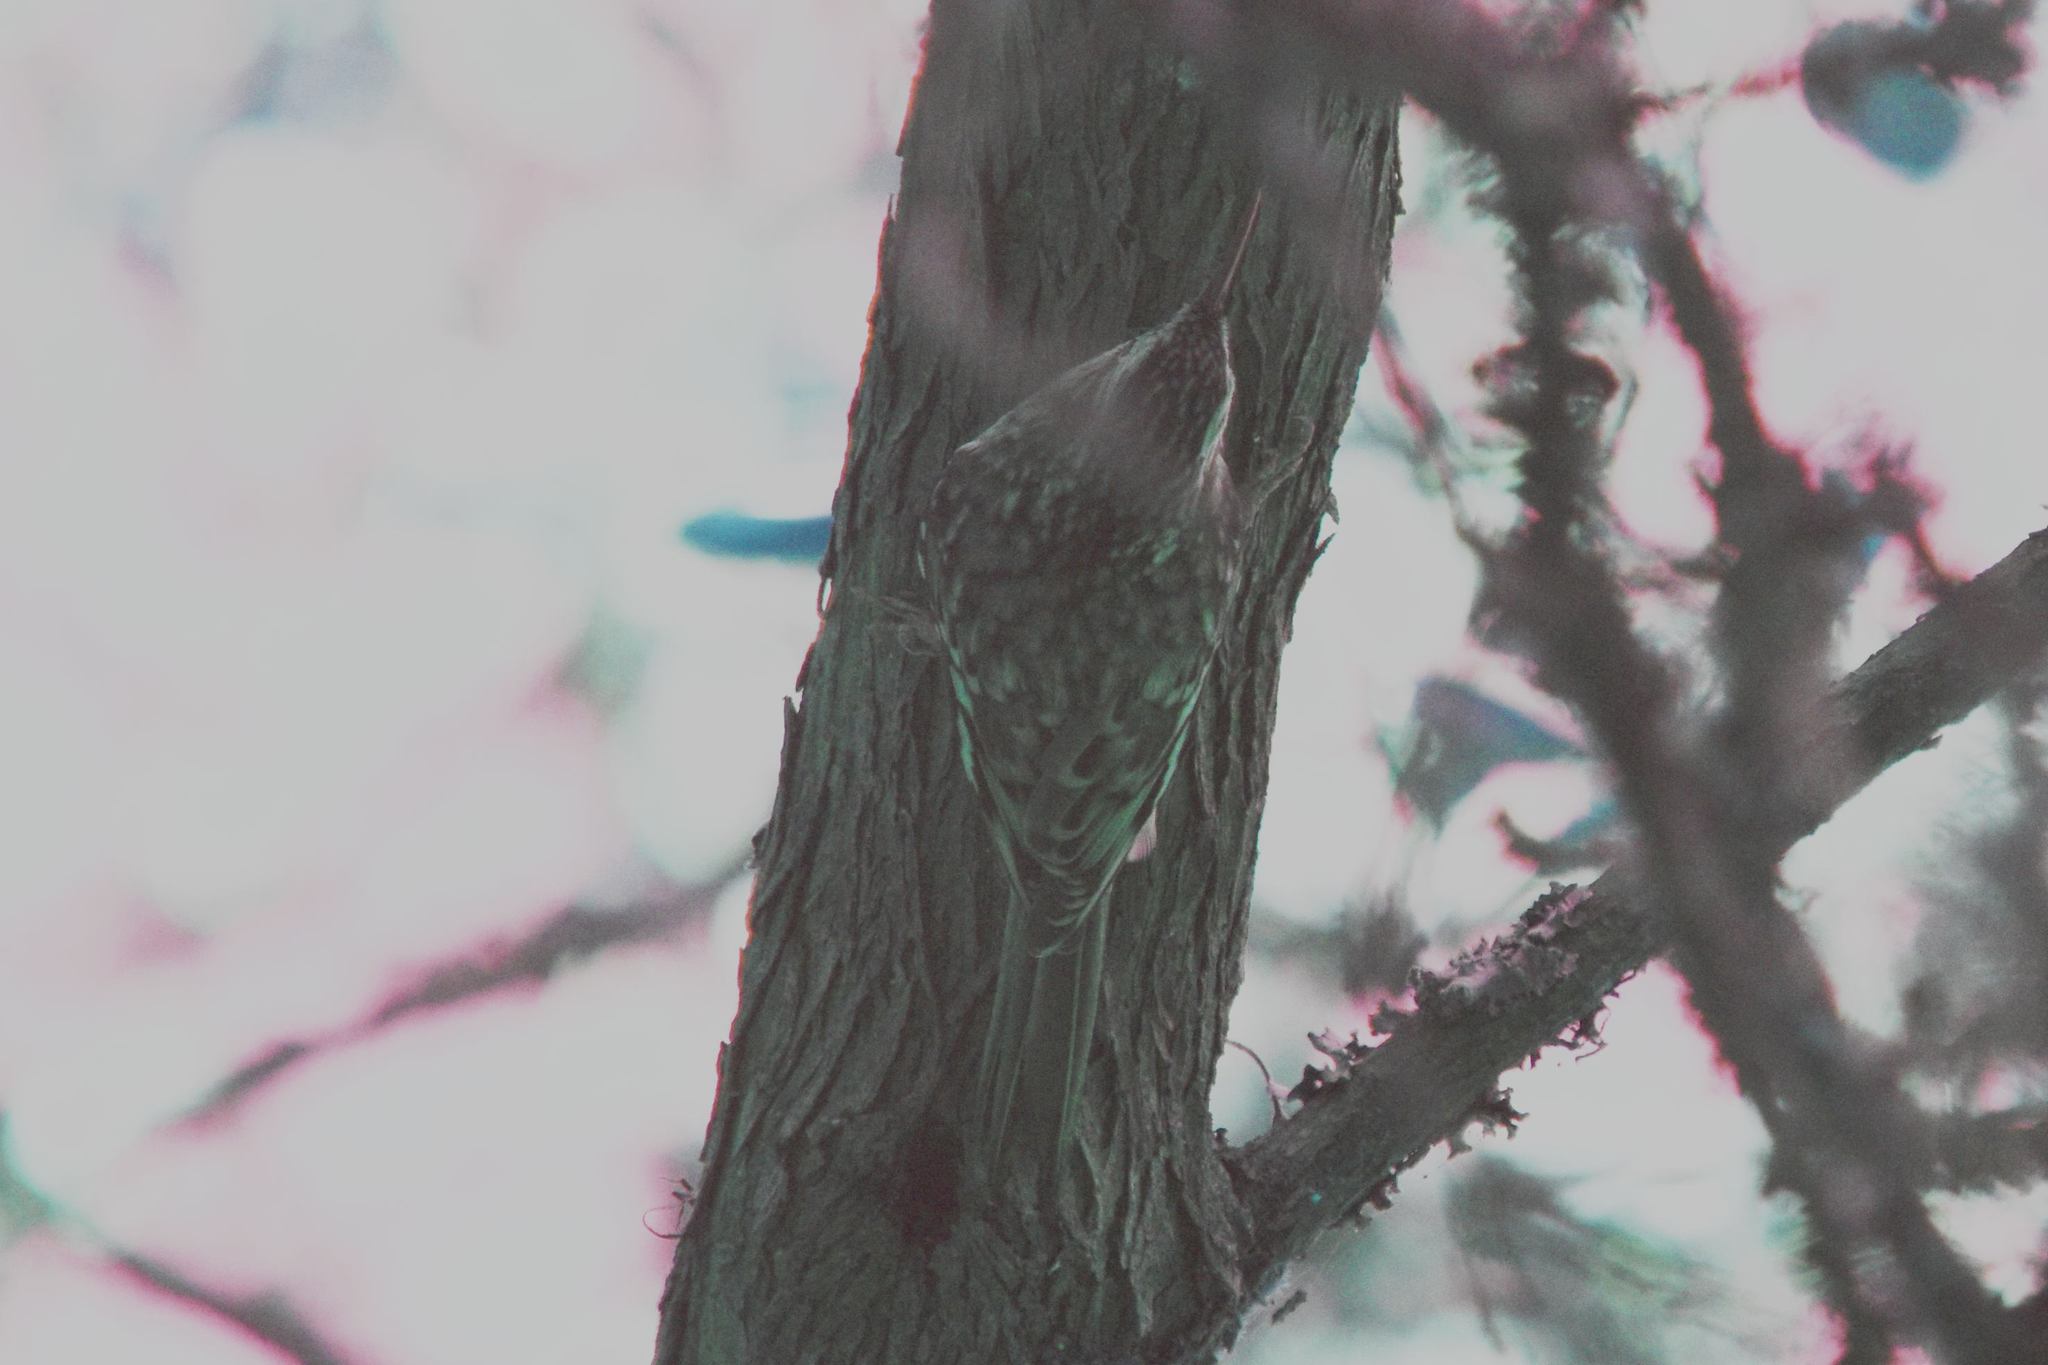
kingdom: Animalia
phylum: Chordata
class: Aves
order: Passeriformes
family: Certhiidae
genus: Certhia
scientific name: Certhia americana
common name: Brown creeper
